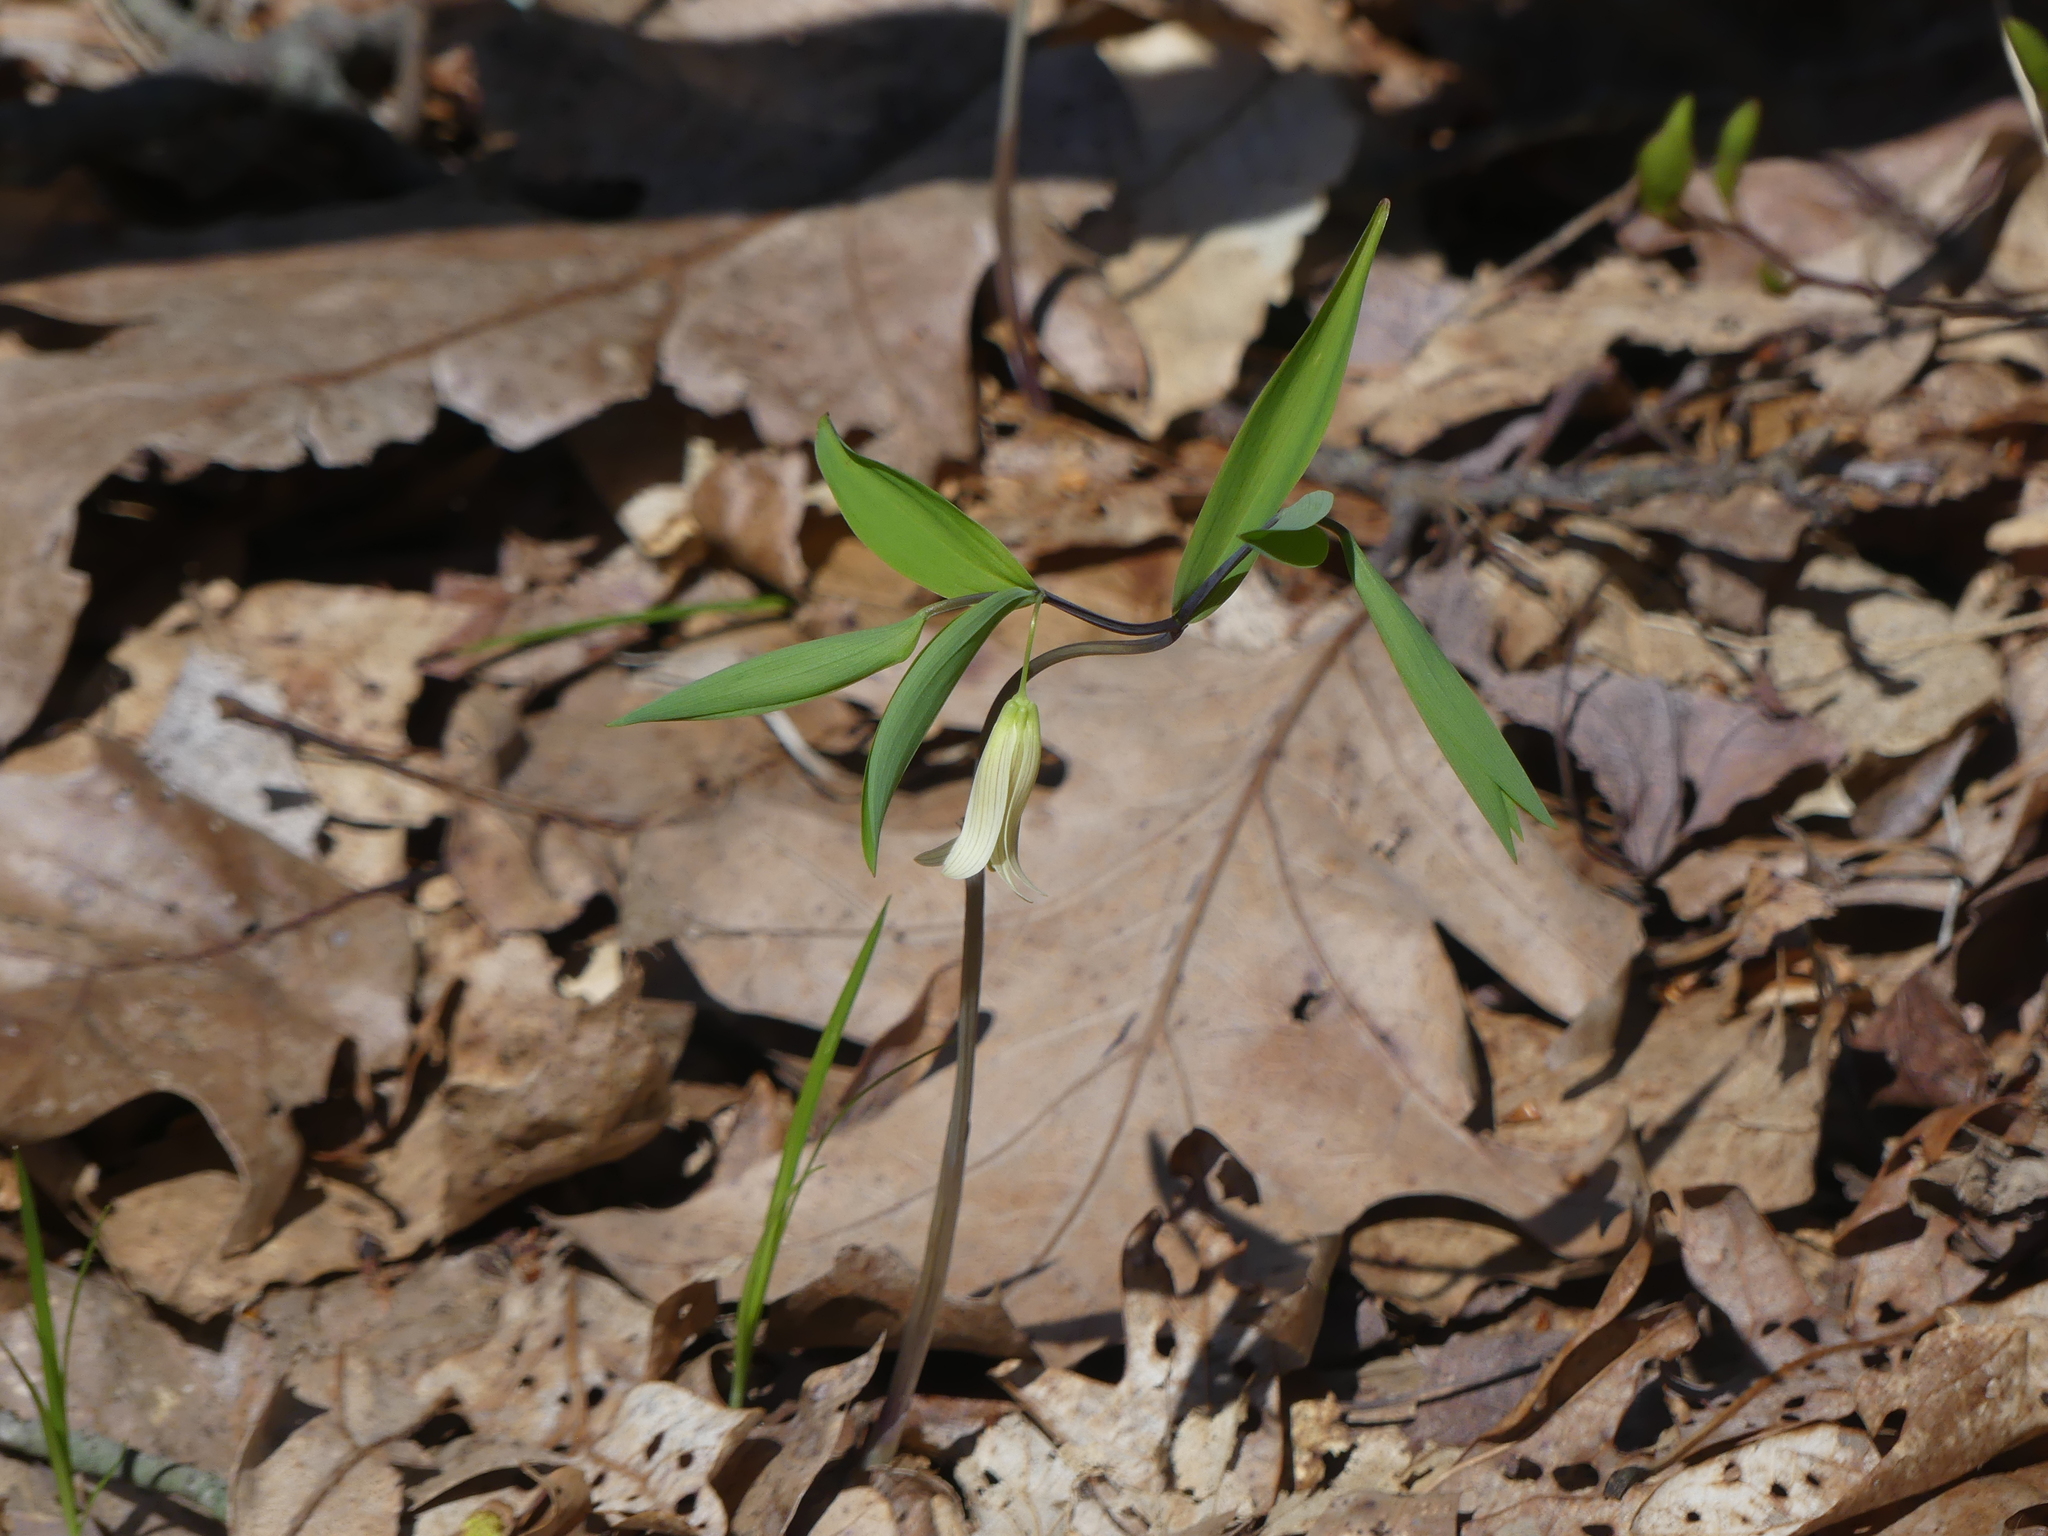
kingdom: Plantae
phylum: Tracheophyta
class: Liliopsida
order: Liliales
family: Colchicaceae
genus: Uvularia
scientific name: Uvularia sessilifolia
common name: Straw-lily
